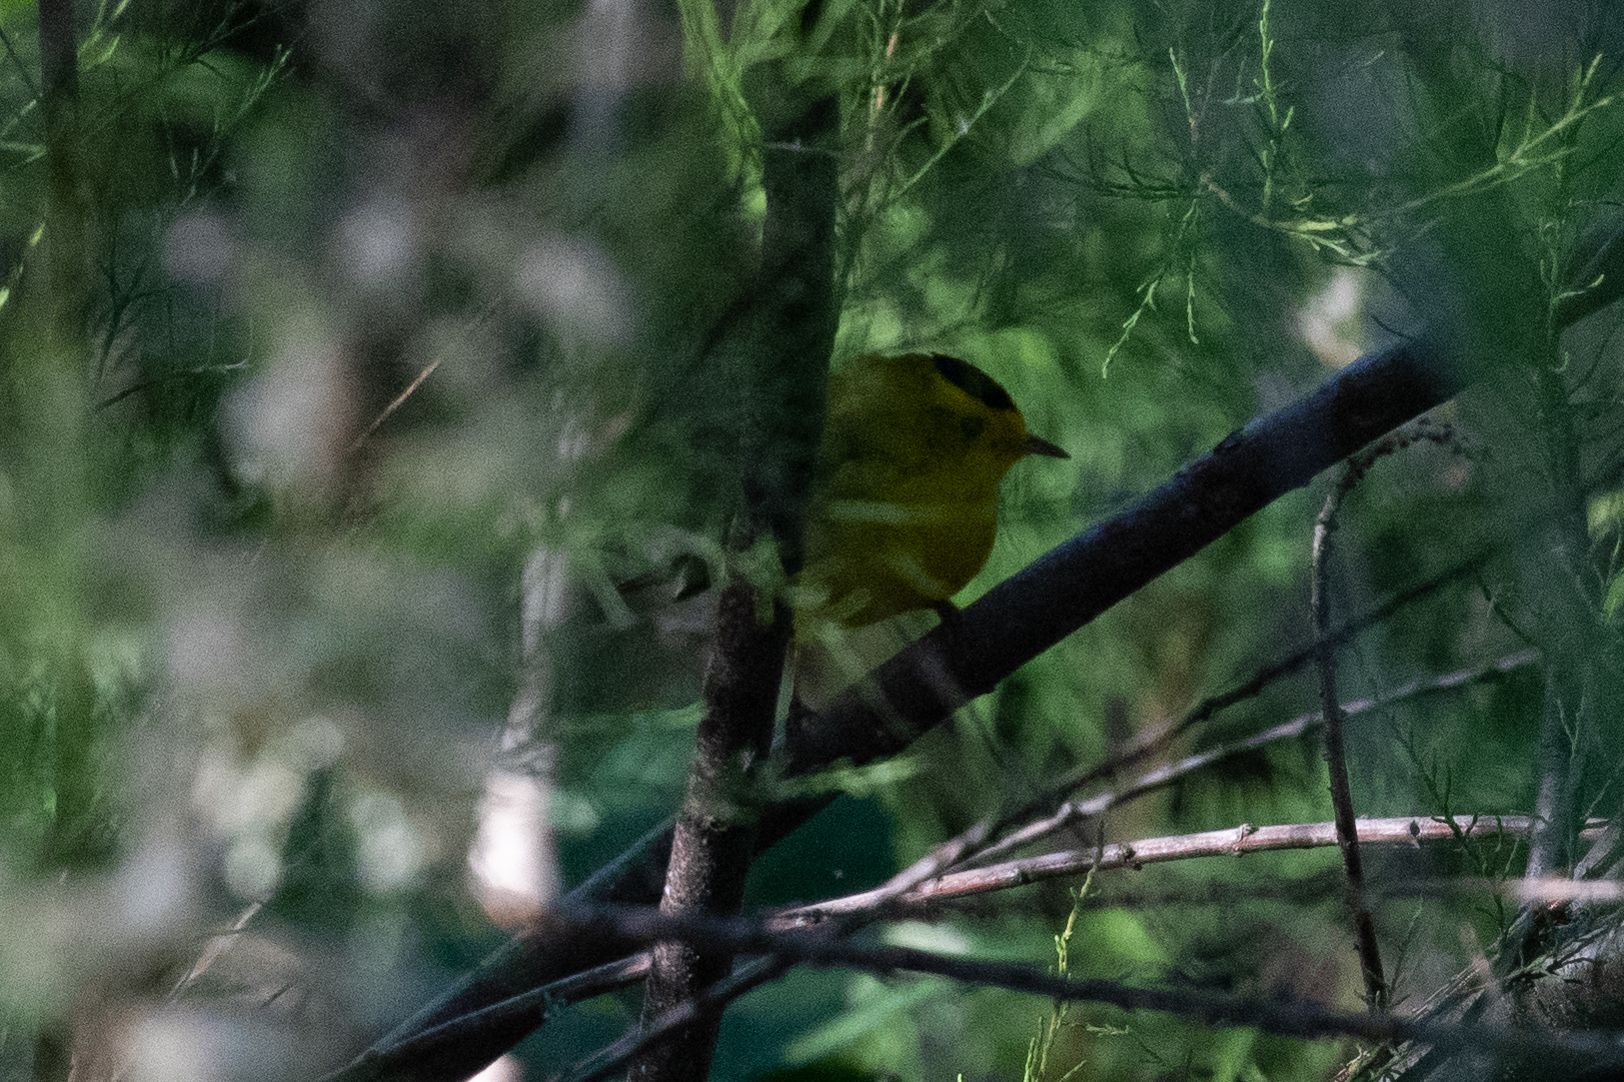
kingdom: Animalia
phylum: Chordata
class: Aves
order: Passeriformes
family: Parulidae
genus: Cardellina
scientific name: Cardellina pusilla
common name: Wilson's warbler
